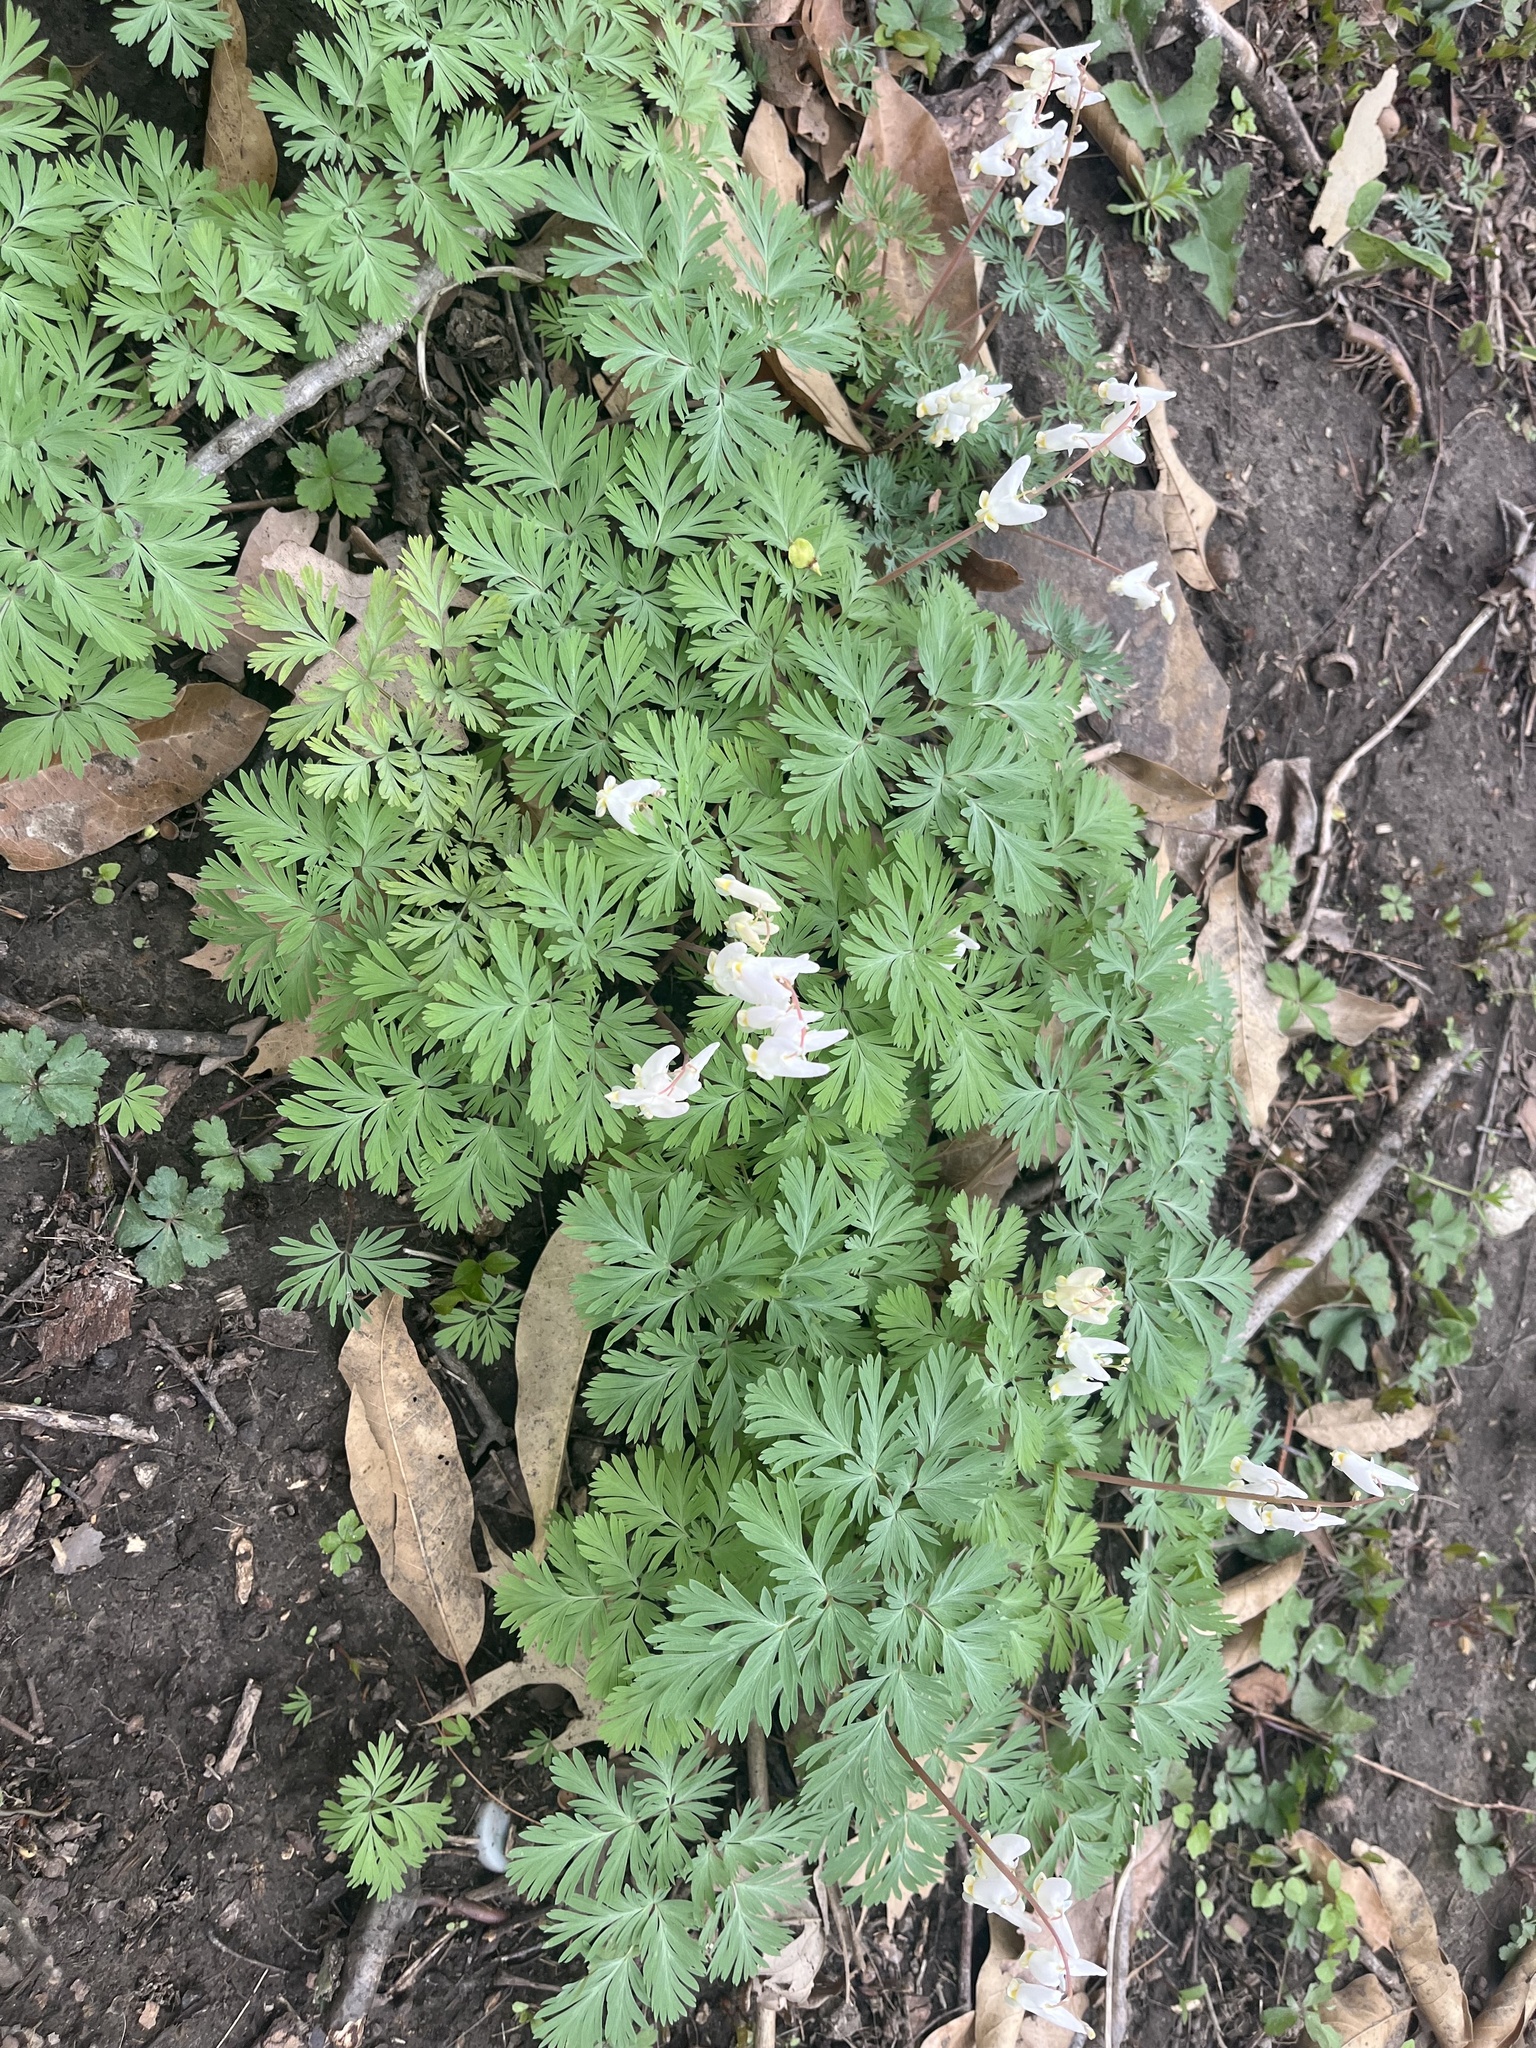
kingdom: Plantae
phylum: Tracheophyta
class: Magnoliopsida
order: Ranunculales
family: Papaveraceae
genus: Dicentra
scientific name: Dicentra cucullaria
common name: Dutchman's breeches
